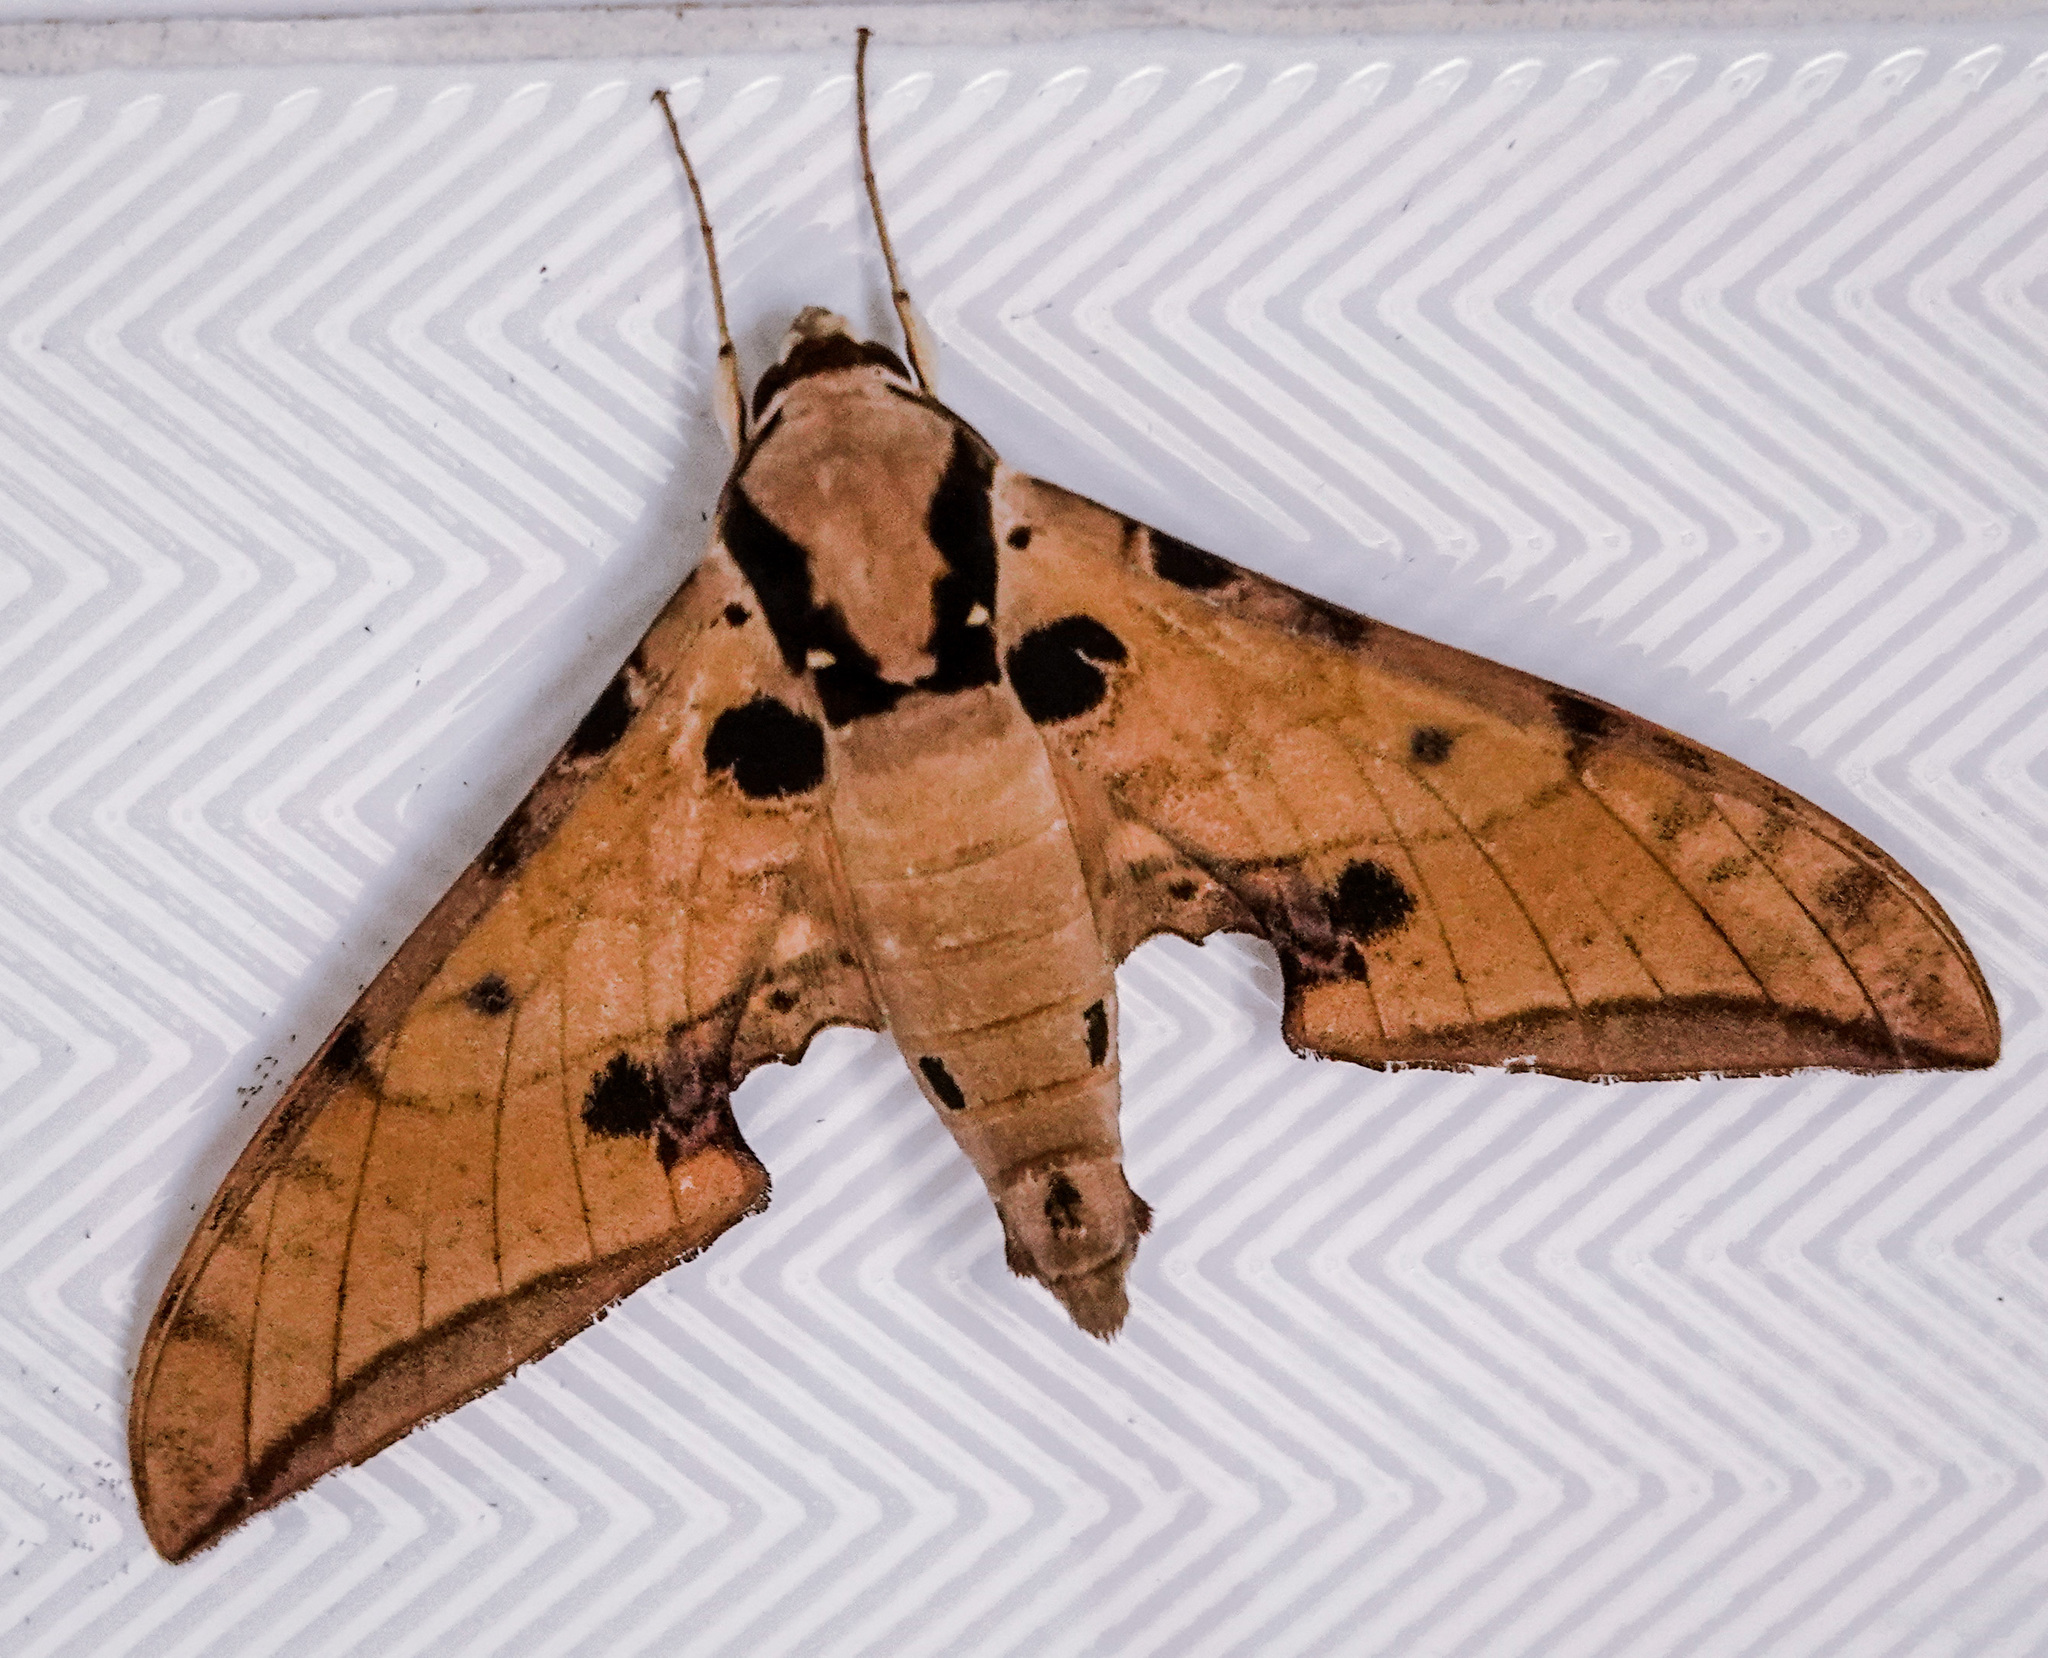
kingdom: Animalia
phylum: Arthropoda
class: Insecta
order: Lepidoptera
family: Sphingidae
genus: Ambulyx
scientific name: Ambulyx ochracea
